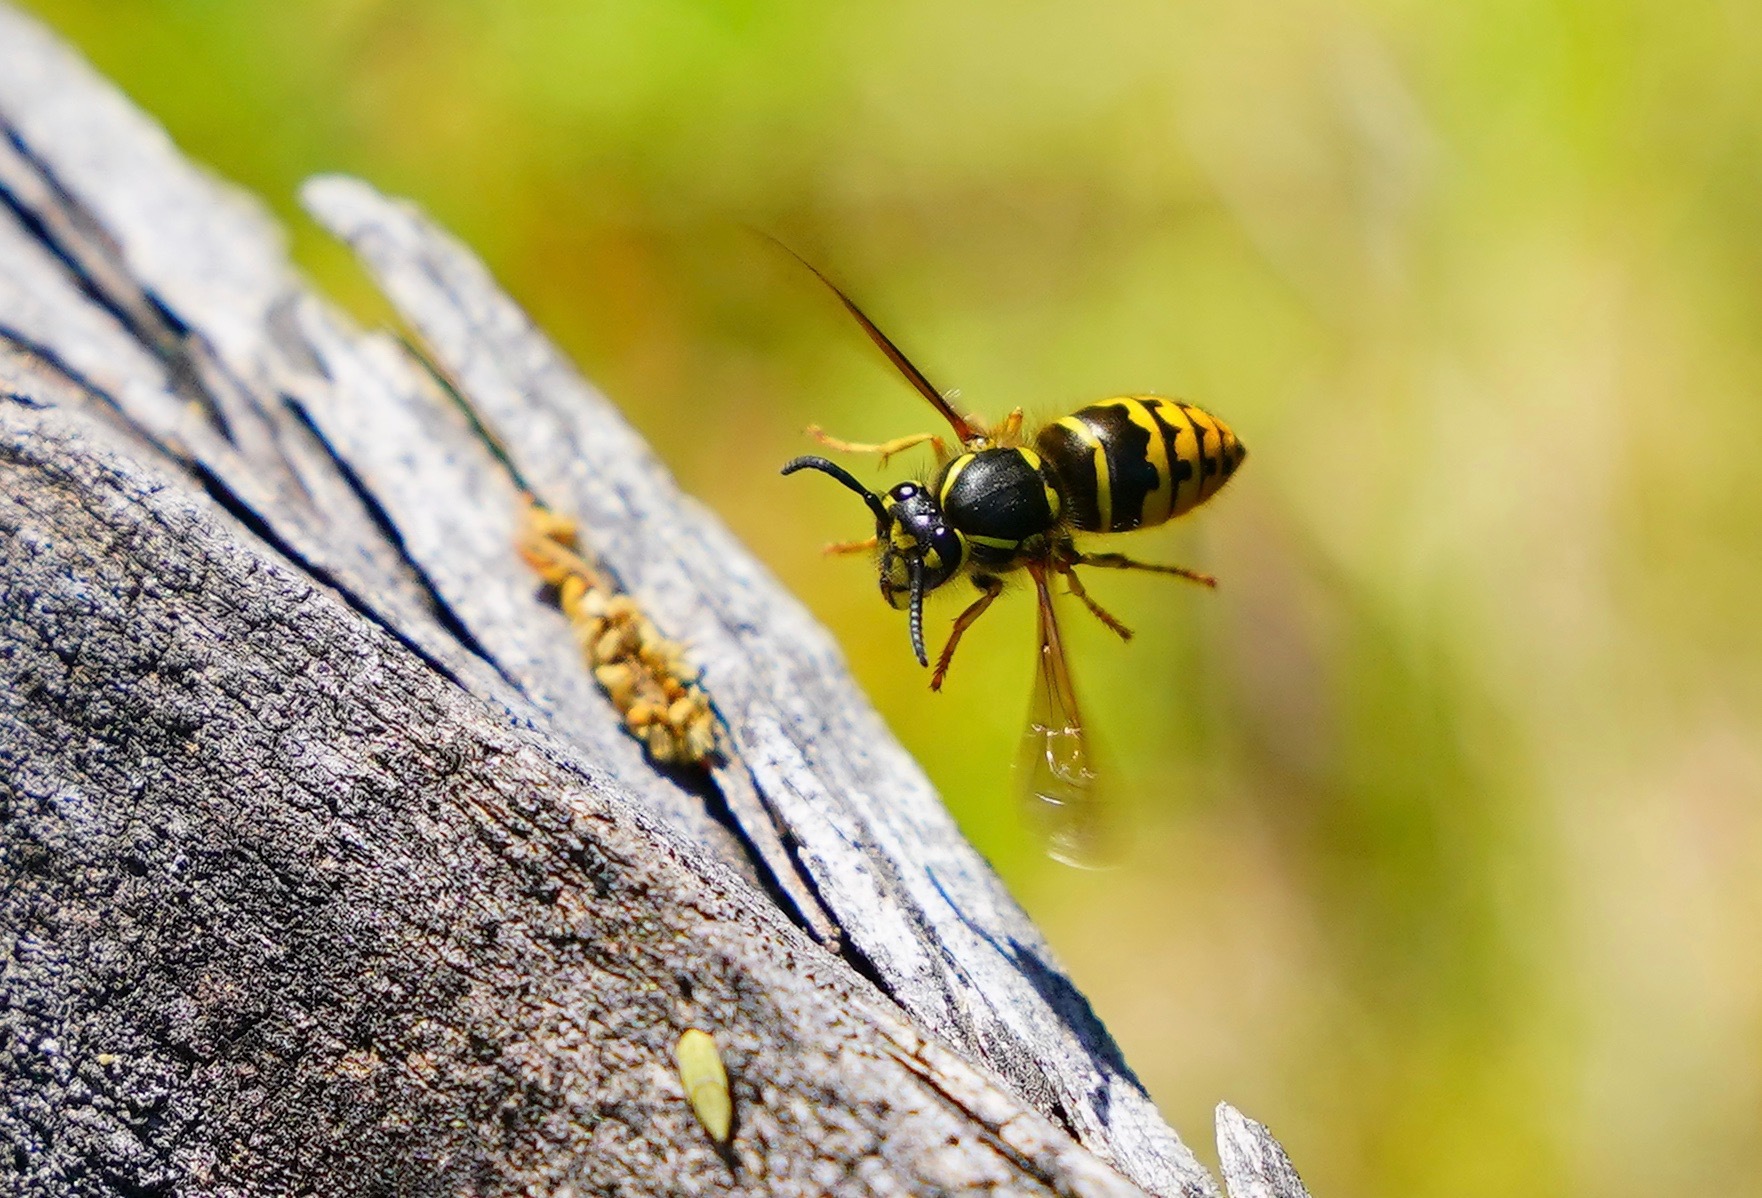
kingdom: Animalia
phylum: Arthropoda
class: Insecta
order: Hymenoptera
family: Vespidae
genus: Vespula
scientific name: Vespula alascensis
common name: Alaska yellowjacket
